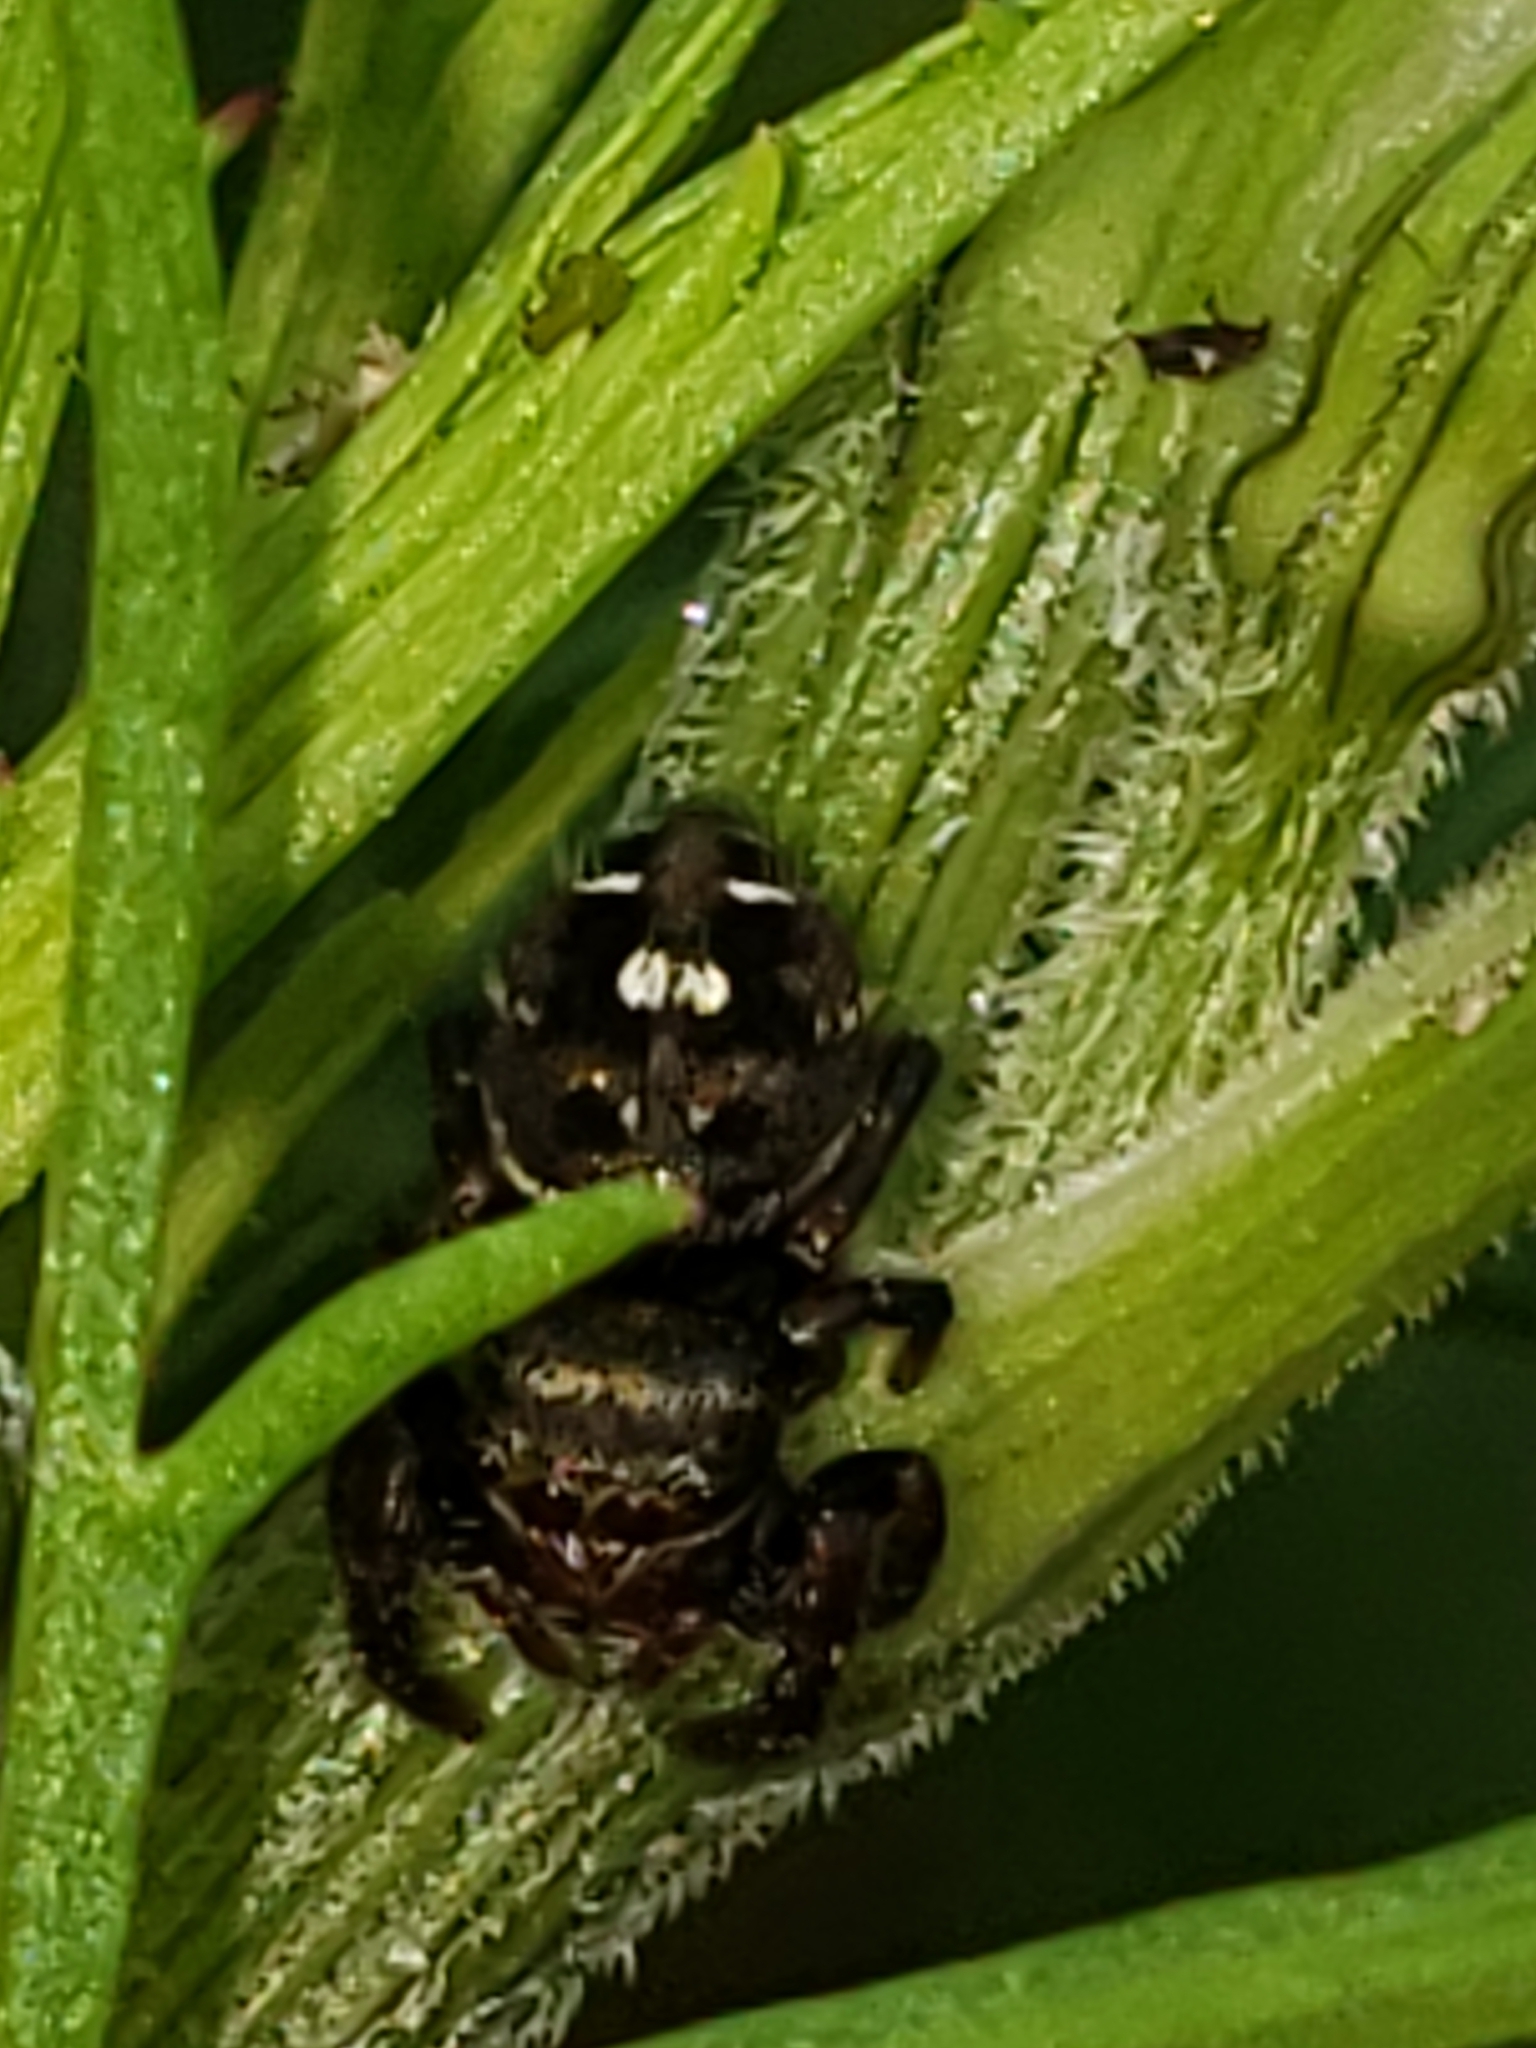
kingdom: Animalia
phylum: Arthropoda
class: Arachnida
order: Araneae
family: Salticidae
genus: Phidippus
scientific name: Phidippus audax
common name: Bold jumper
